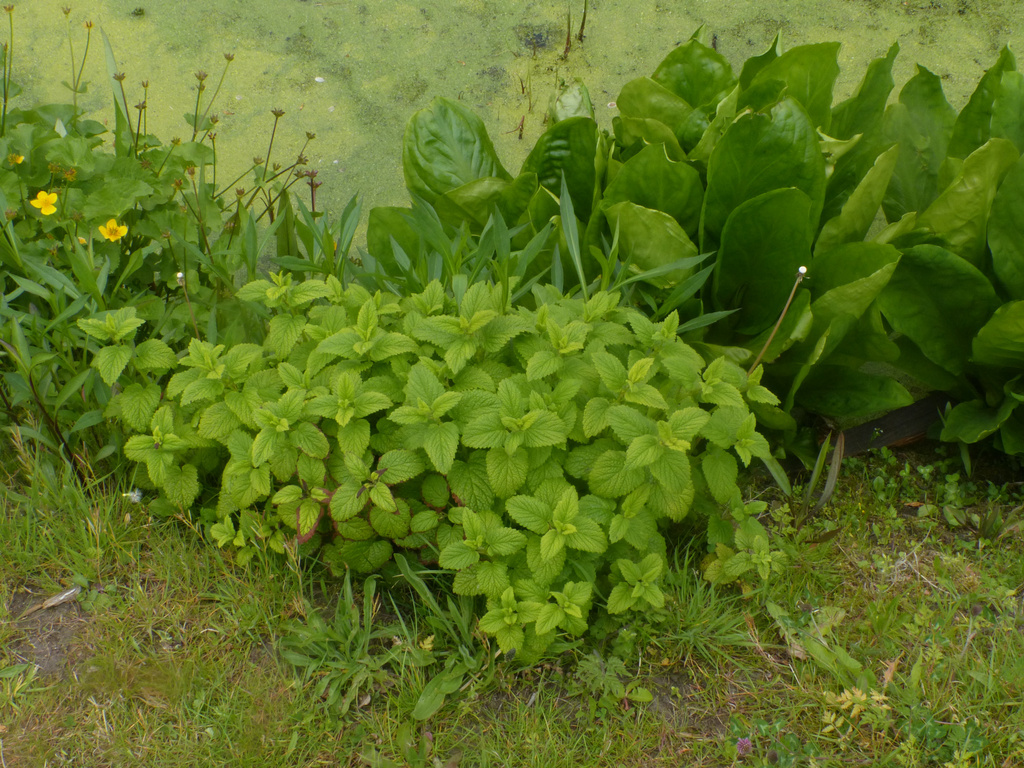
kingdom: Plantae
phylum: Tracheophyta
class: Magnoliopsida
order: Lamiales
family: Lamiaceae
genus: Melissa
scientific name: Melissa officinalis
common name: Balm
